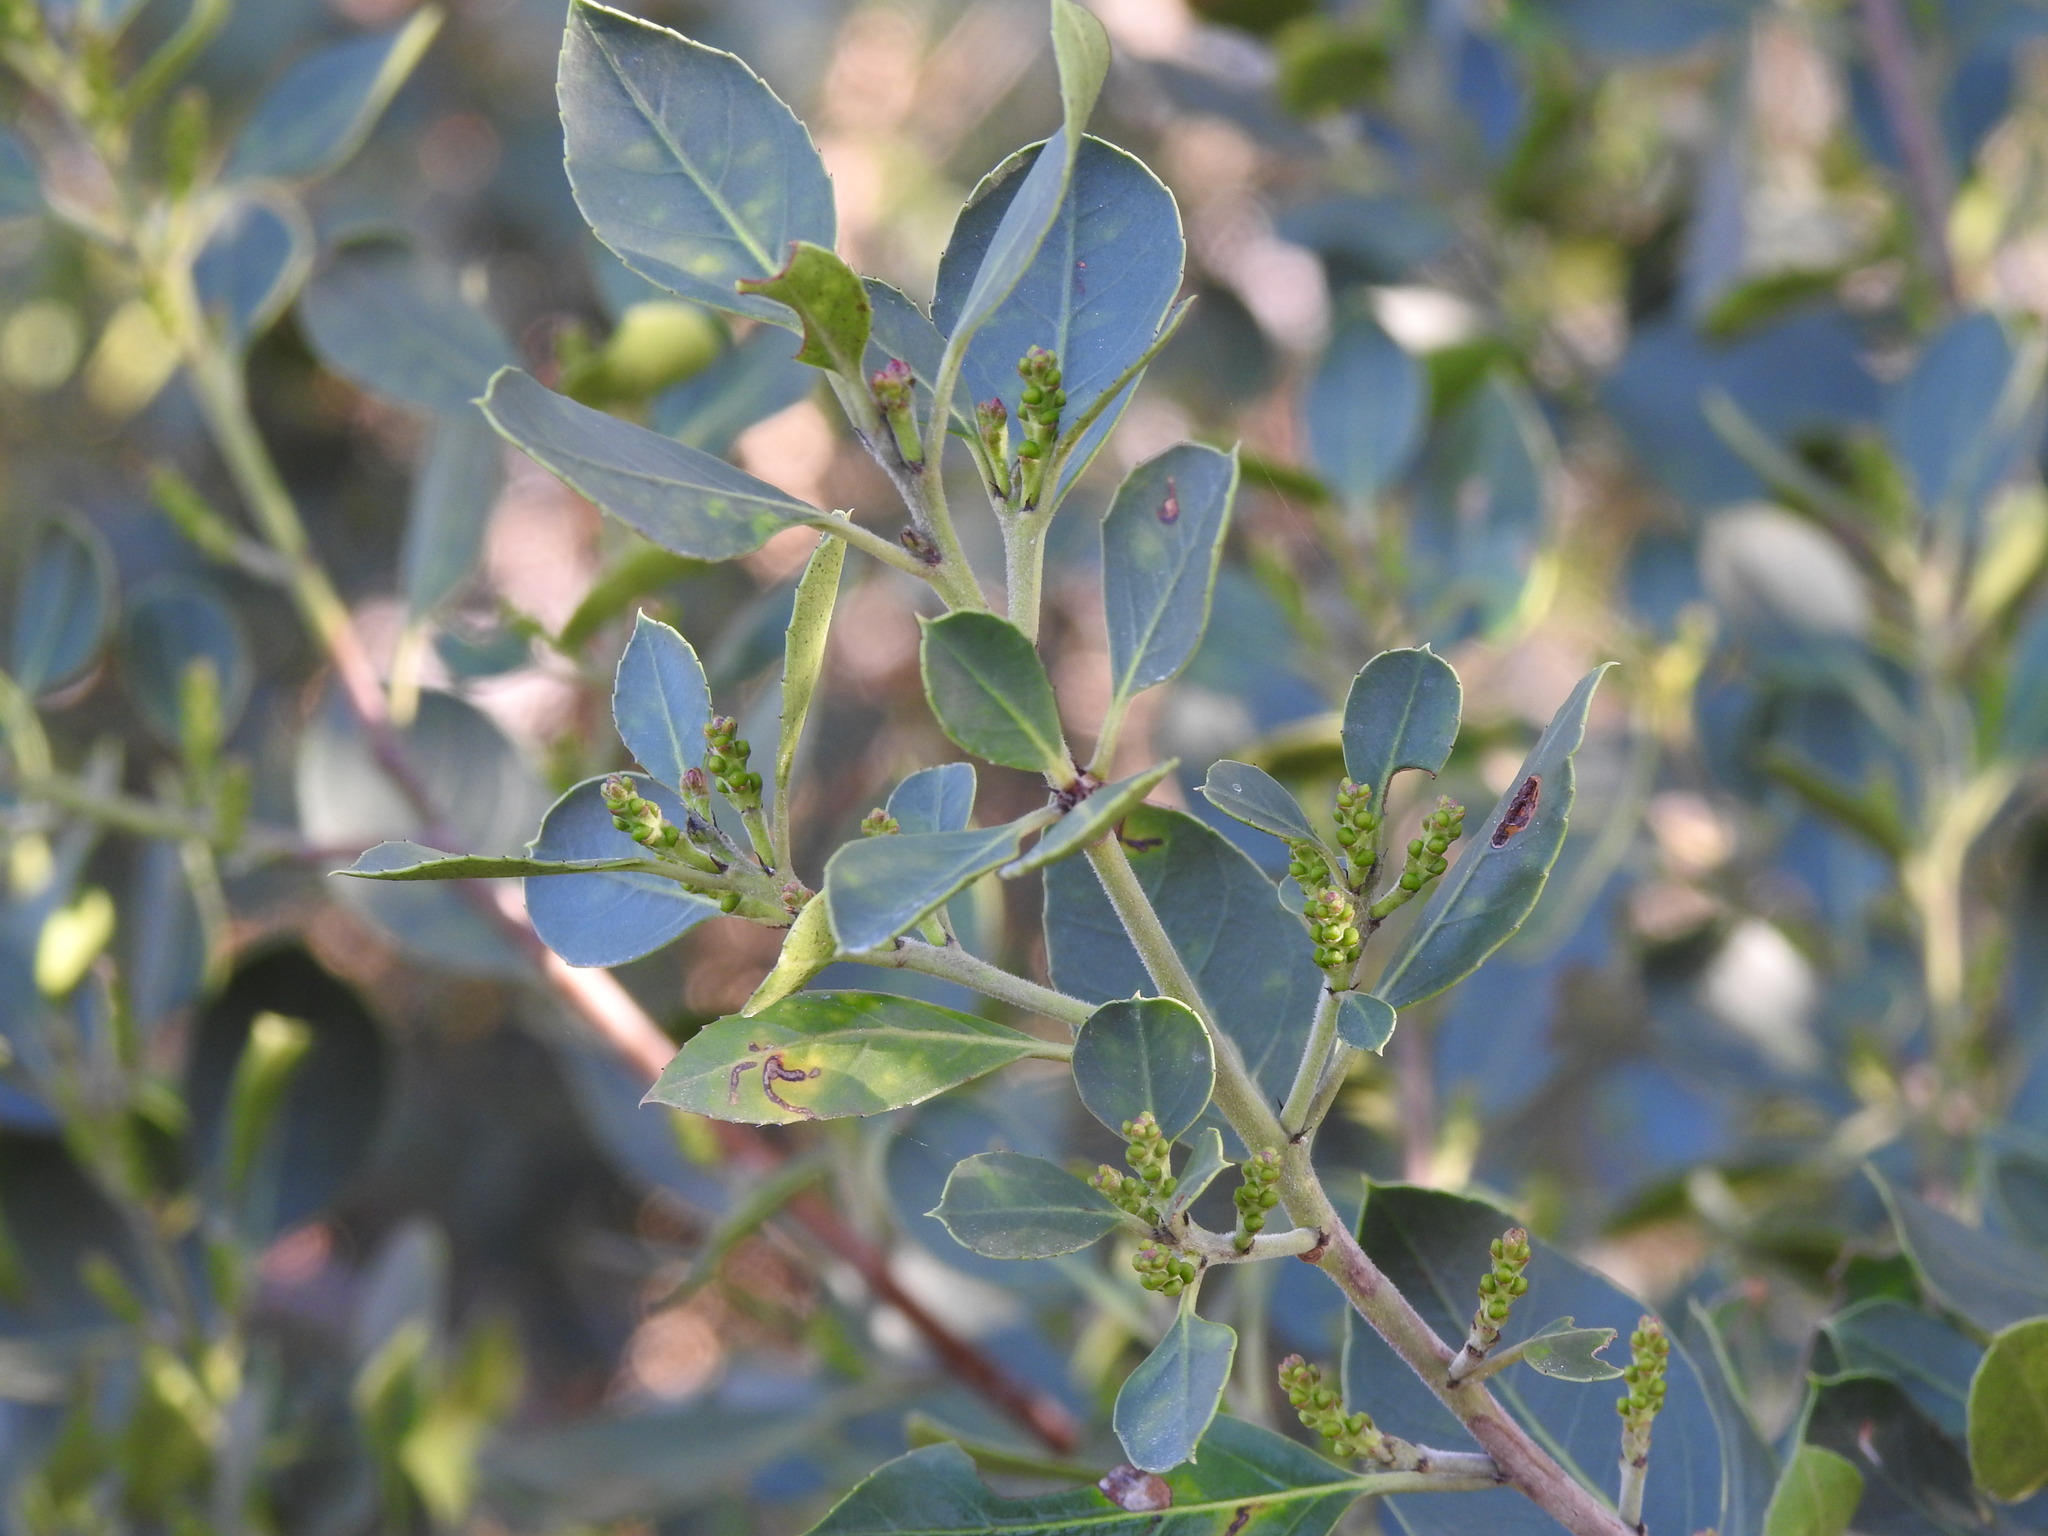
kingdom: Plantae
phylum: Tracheophyta
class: Magnoliopsida
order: Rosales
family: Rhamnaceae
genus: Rhamnus
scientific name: Rhamnus alaternus
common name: Mediterranean buckthorn
